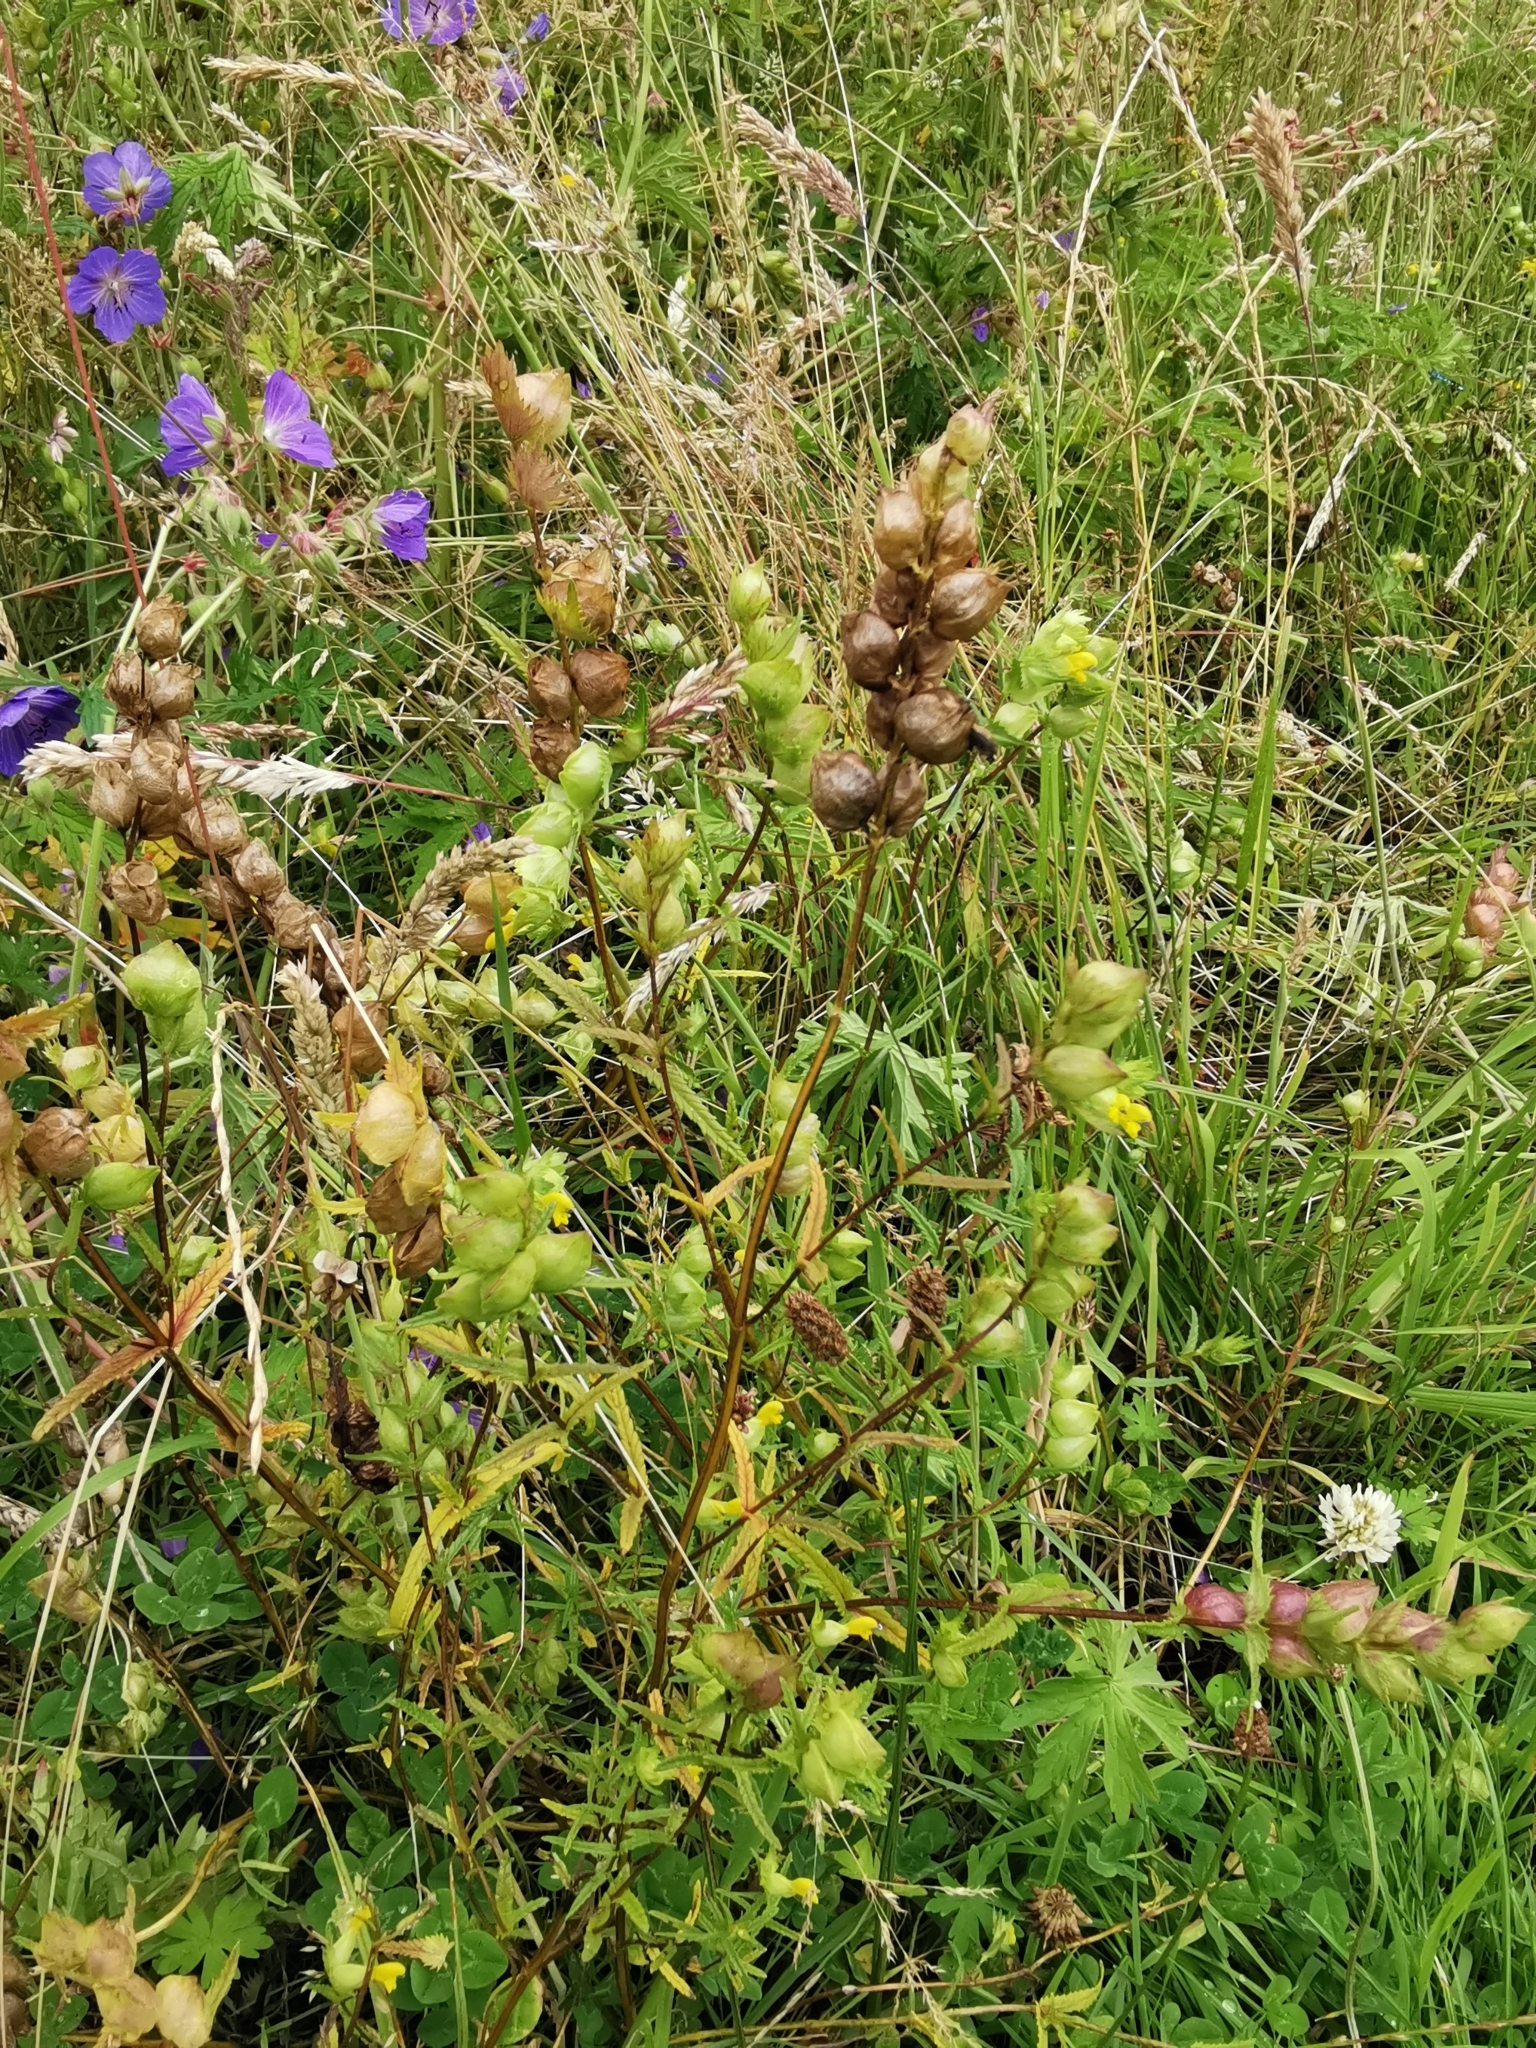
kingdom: Plantae
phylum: Tracheophyta
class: Magnoliopsida
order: Lamiales
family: Orobanchaceae
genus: Rhinanthus
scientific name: Rhinanthus minor
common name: Yellow-rattle
